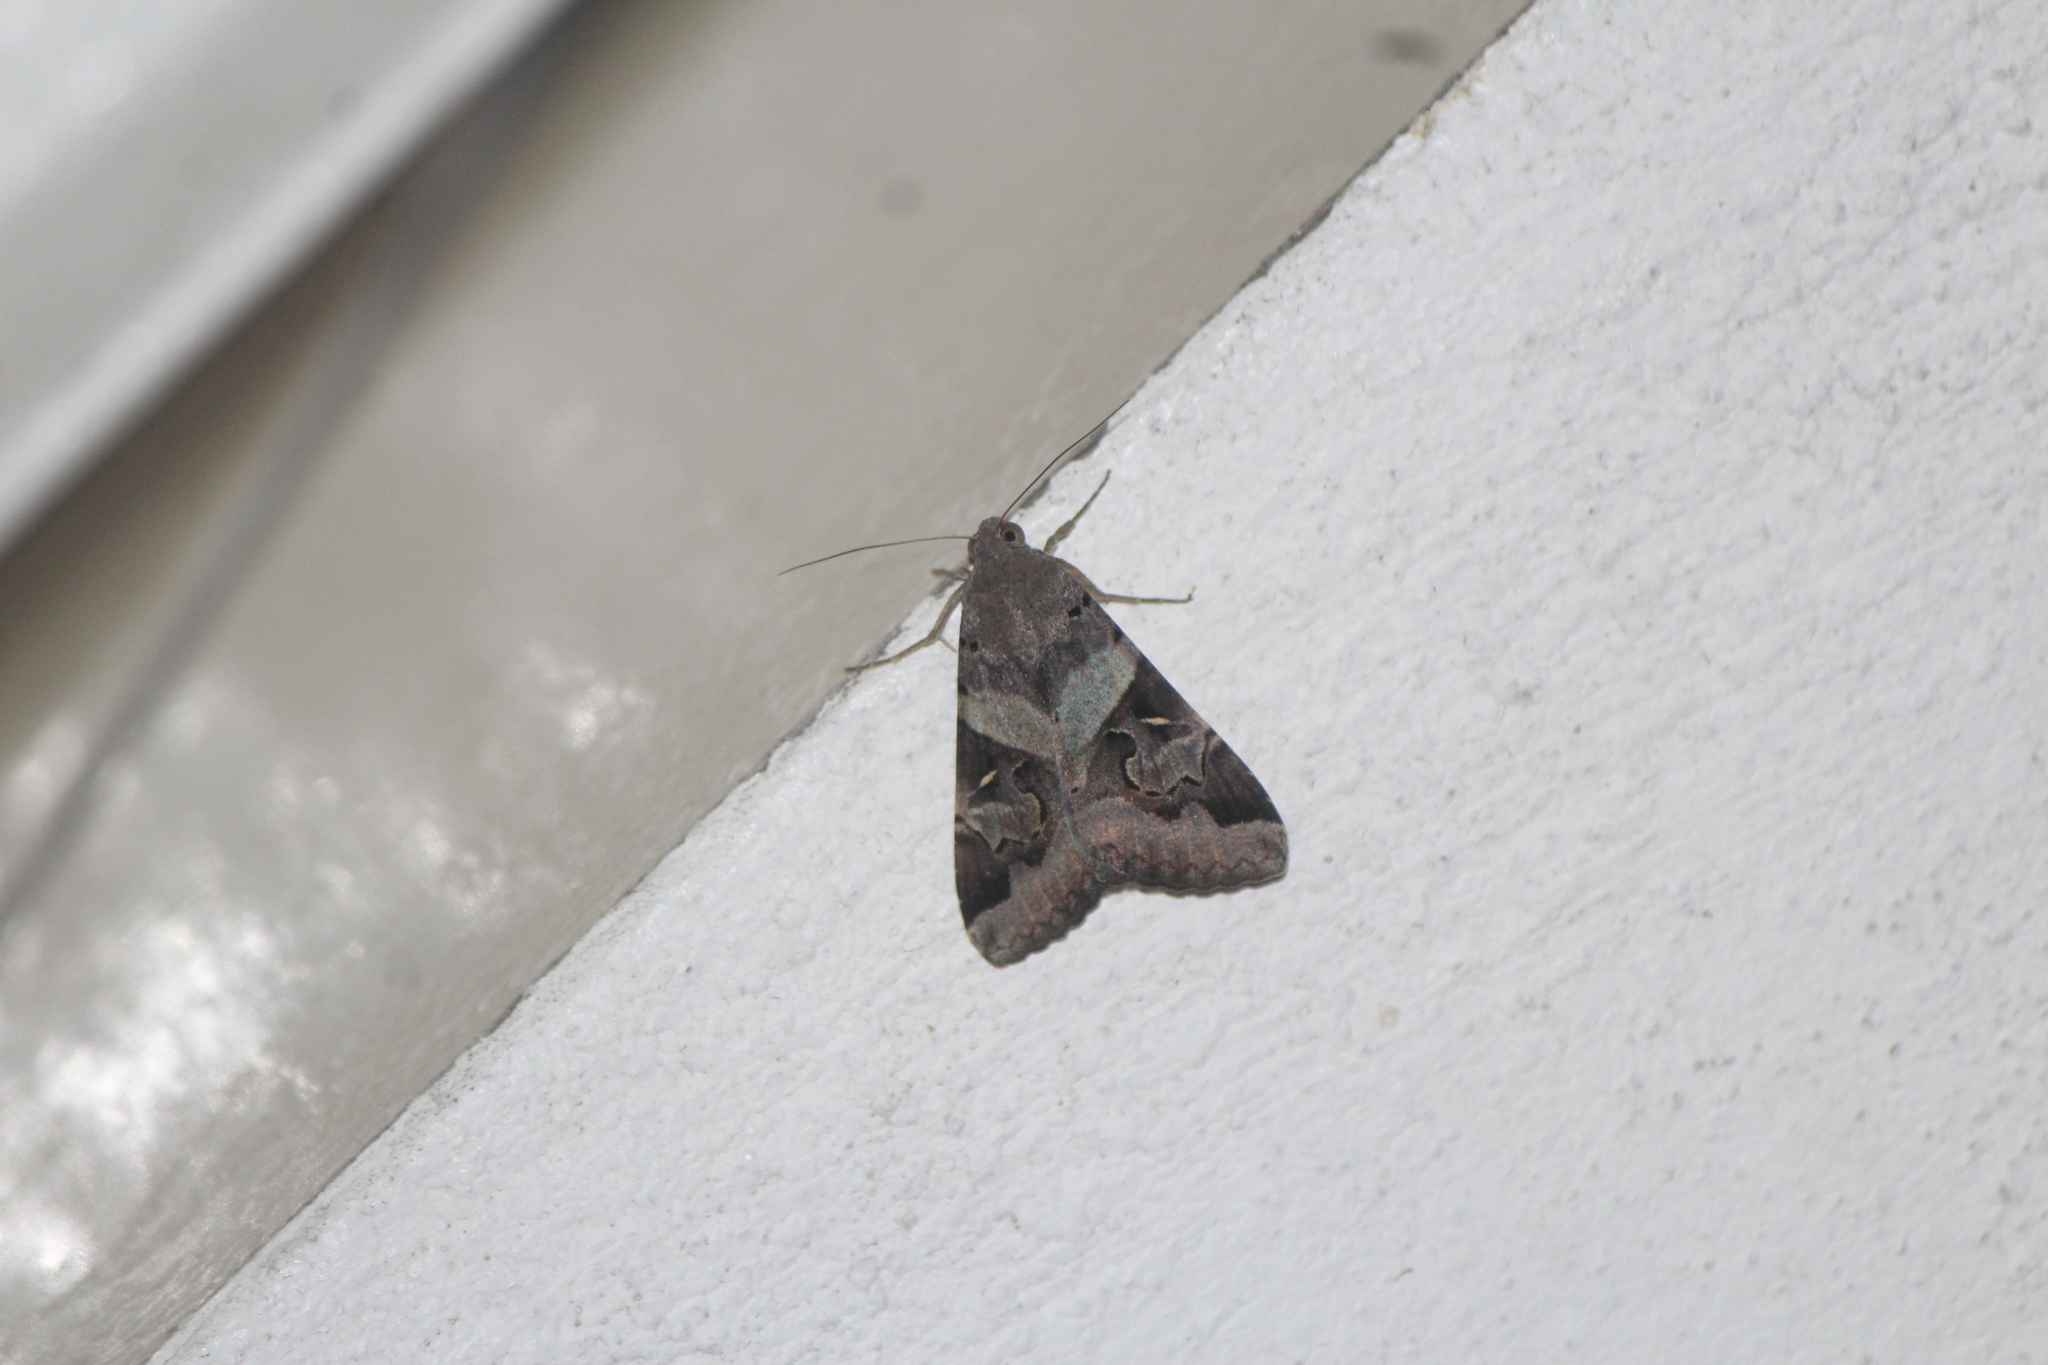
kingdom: Animalia
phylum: Arthropoda
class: Insecta
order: Lepidoptera
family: Erebidae
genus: Melipotis
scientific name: Melipotis indomita
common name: Moth
